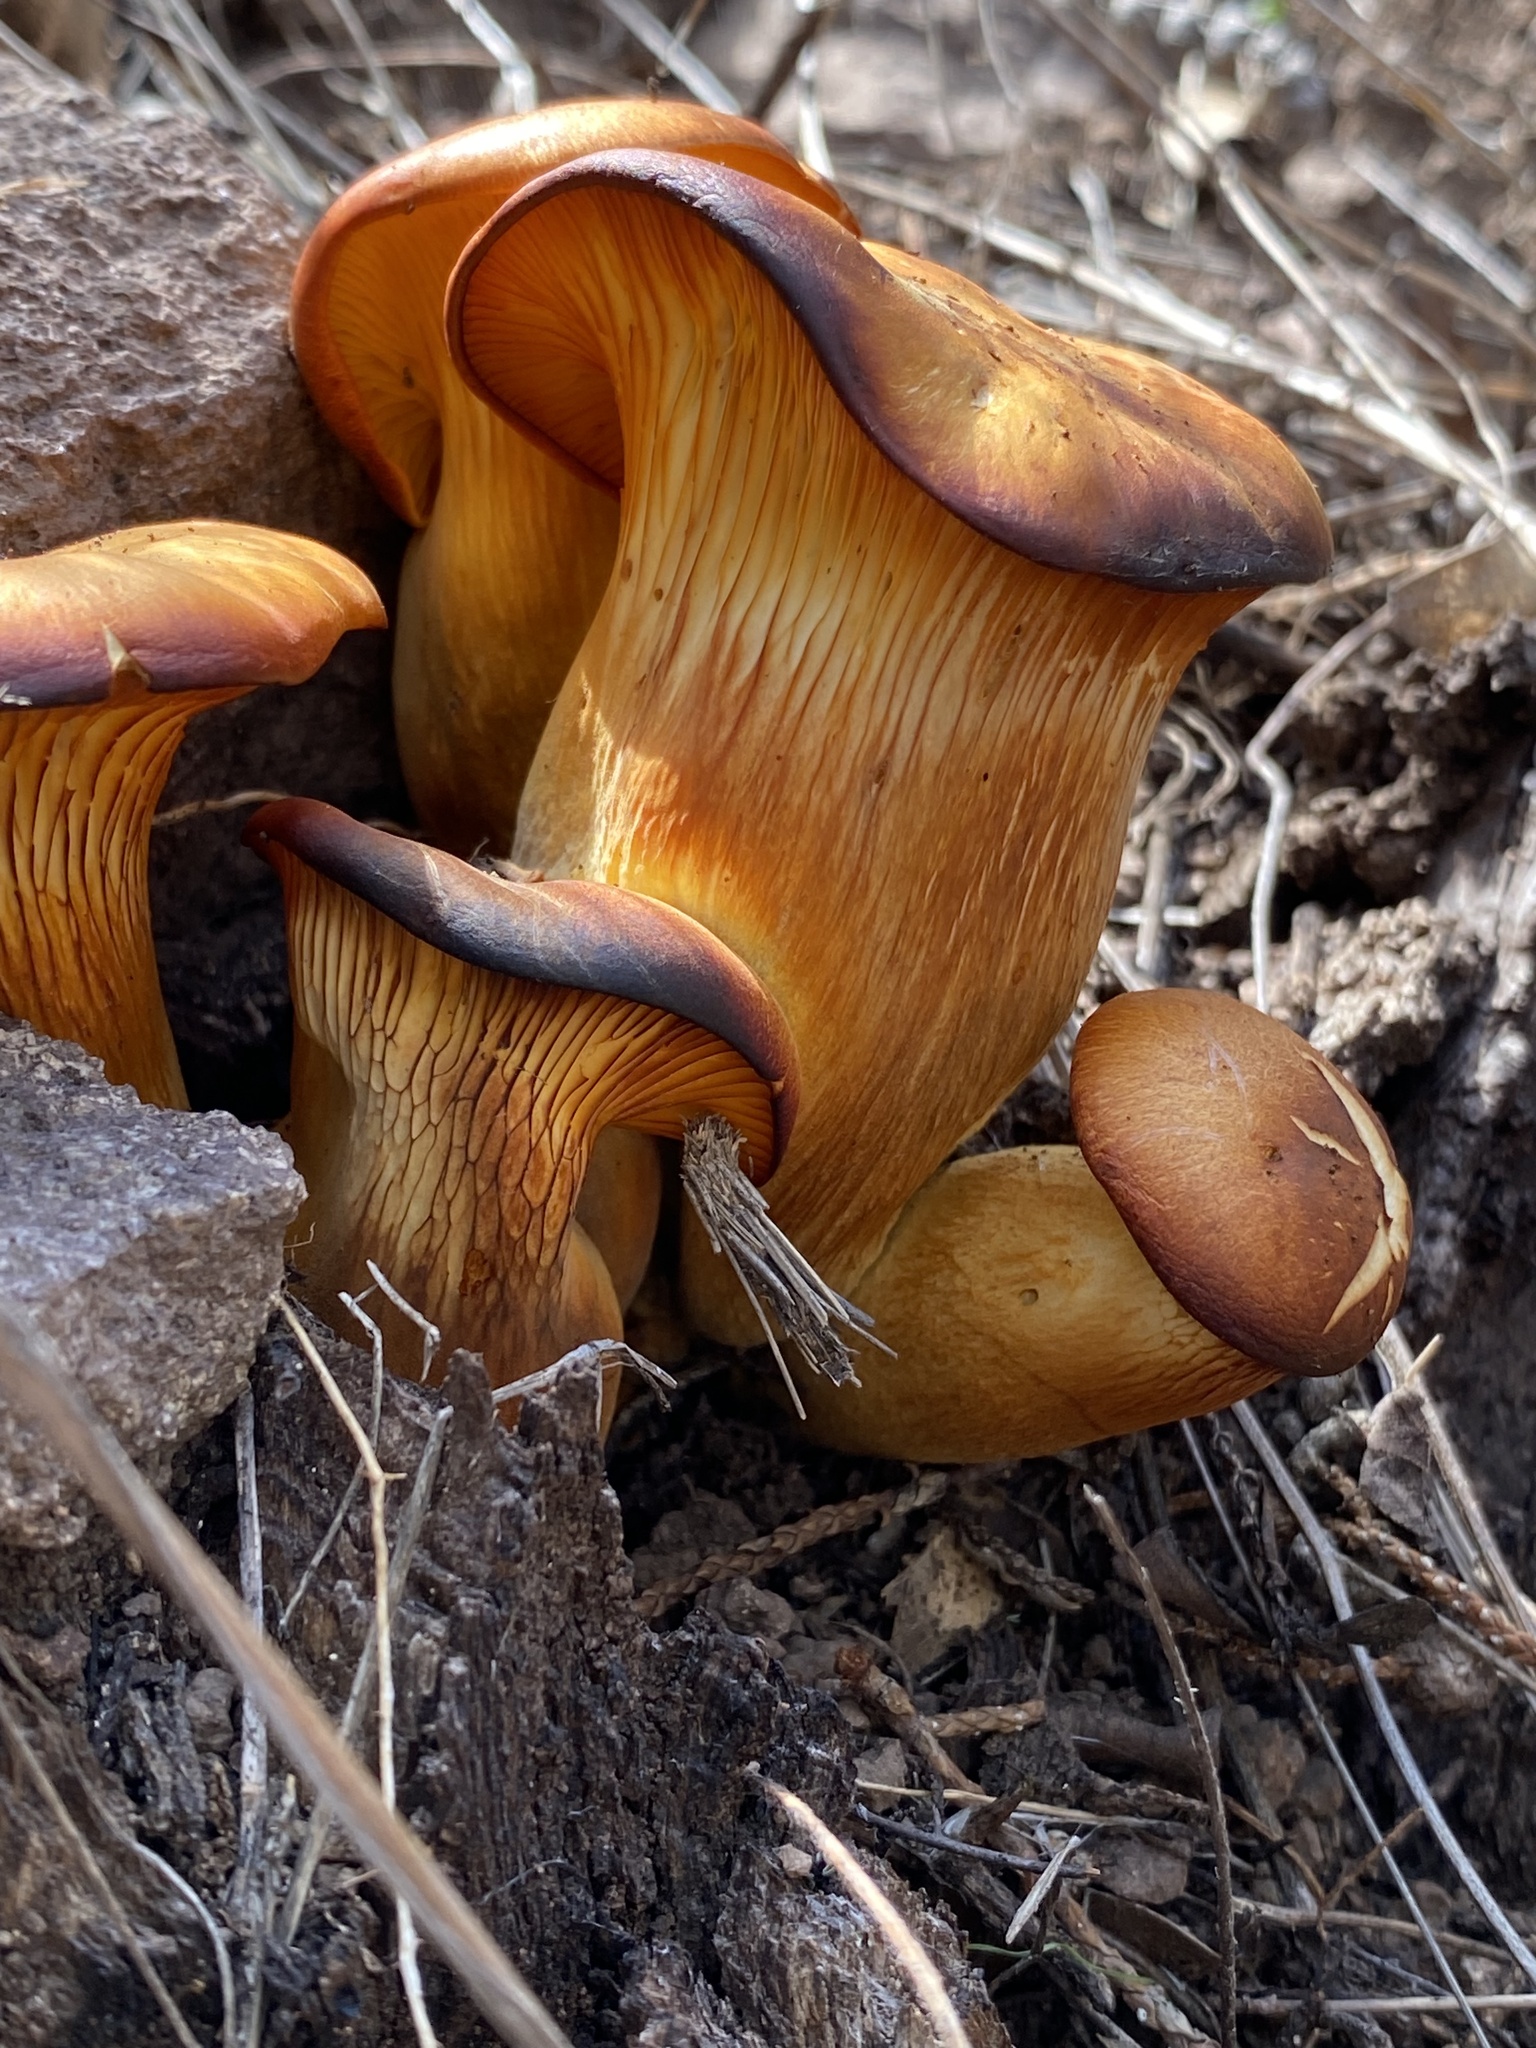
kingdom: Fungi
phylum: Basidiomycota
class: Agaricomycetes
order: Agaricales
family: Omphalotaceae
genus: Omphalotus
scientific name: Omphalotus subilludens
